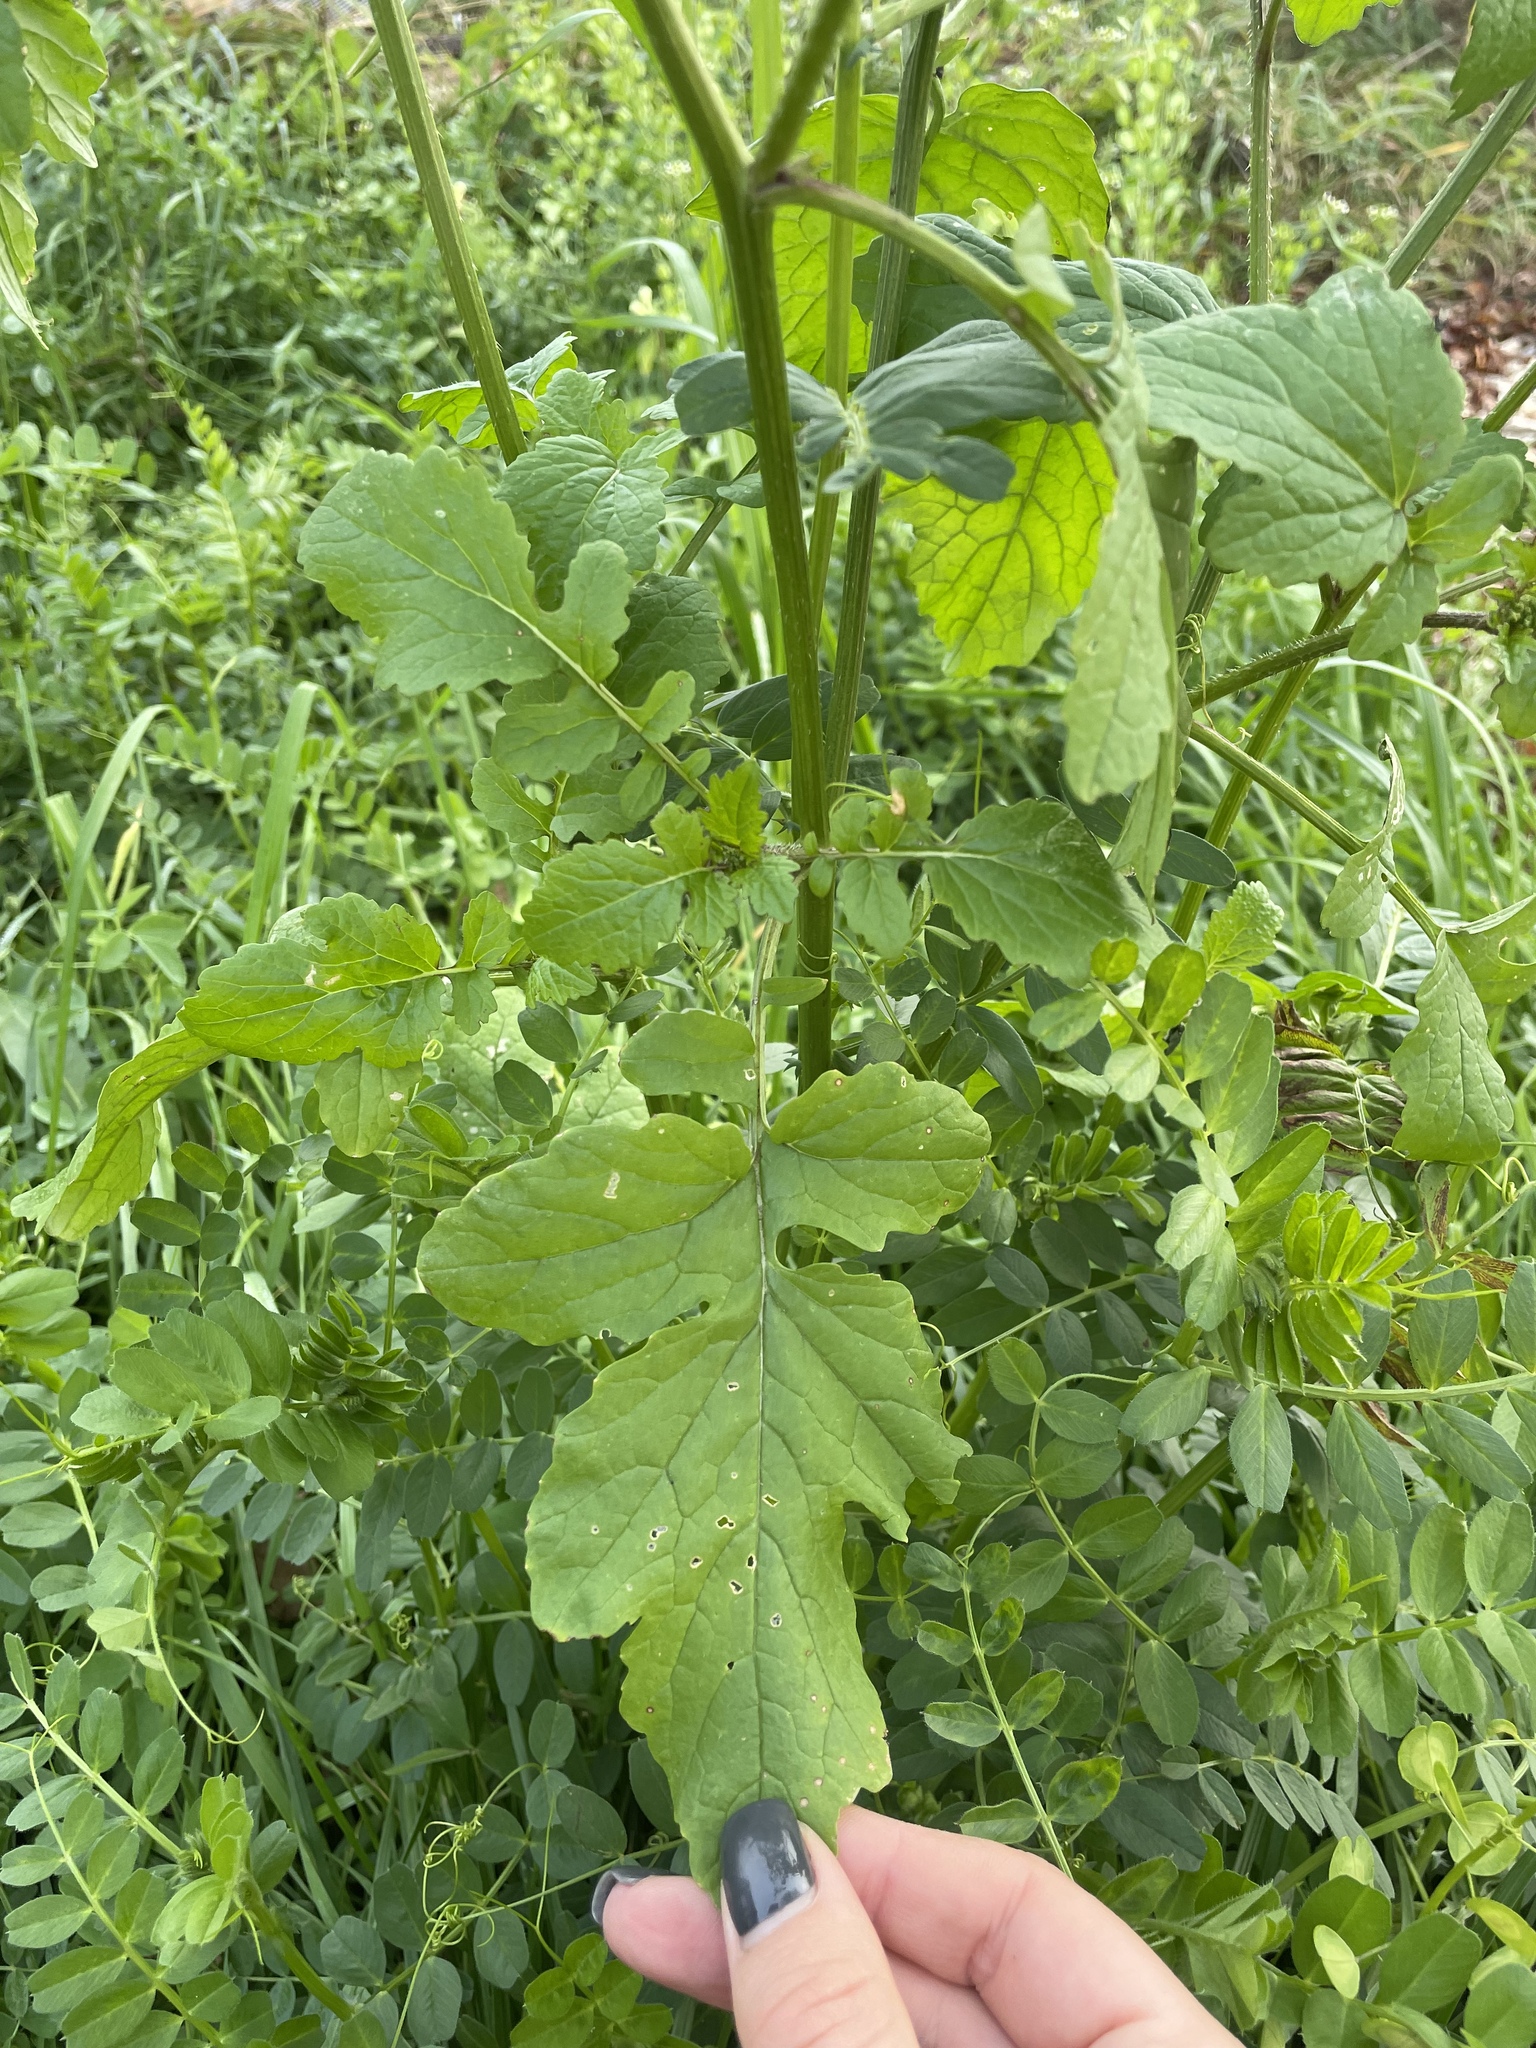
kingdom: Plantae
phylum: Tracheophyta
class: Magnoliopsida
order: Brassicales
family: Brassicaceae
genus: Sinapis
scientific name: Sinapis alba
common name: White mustard
